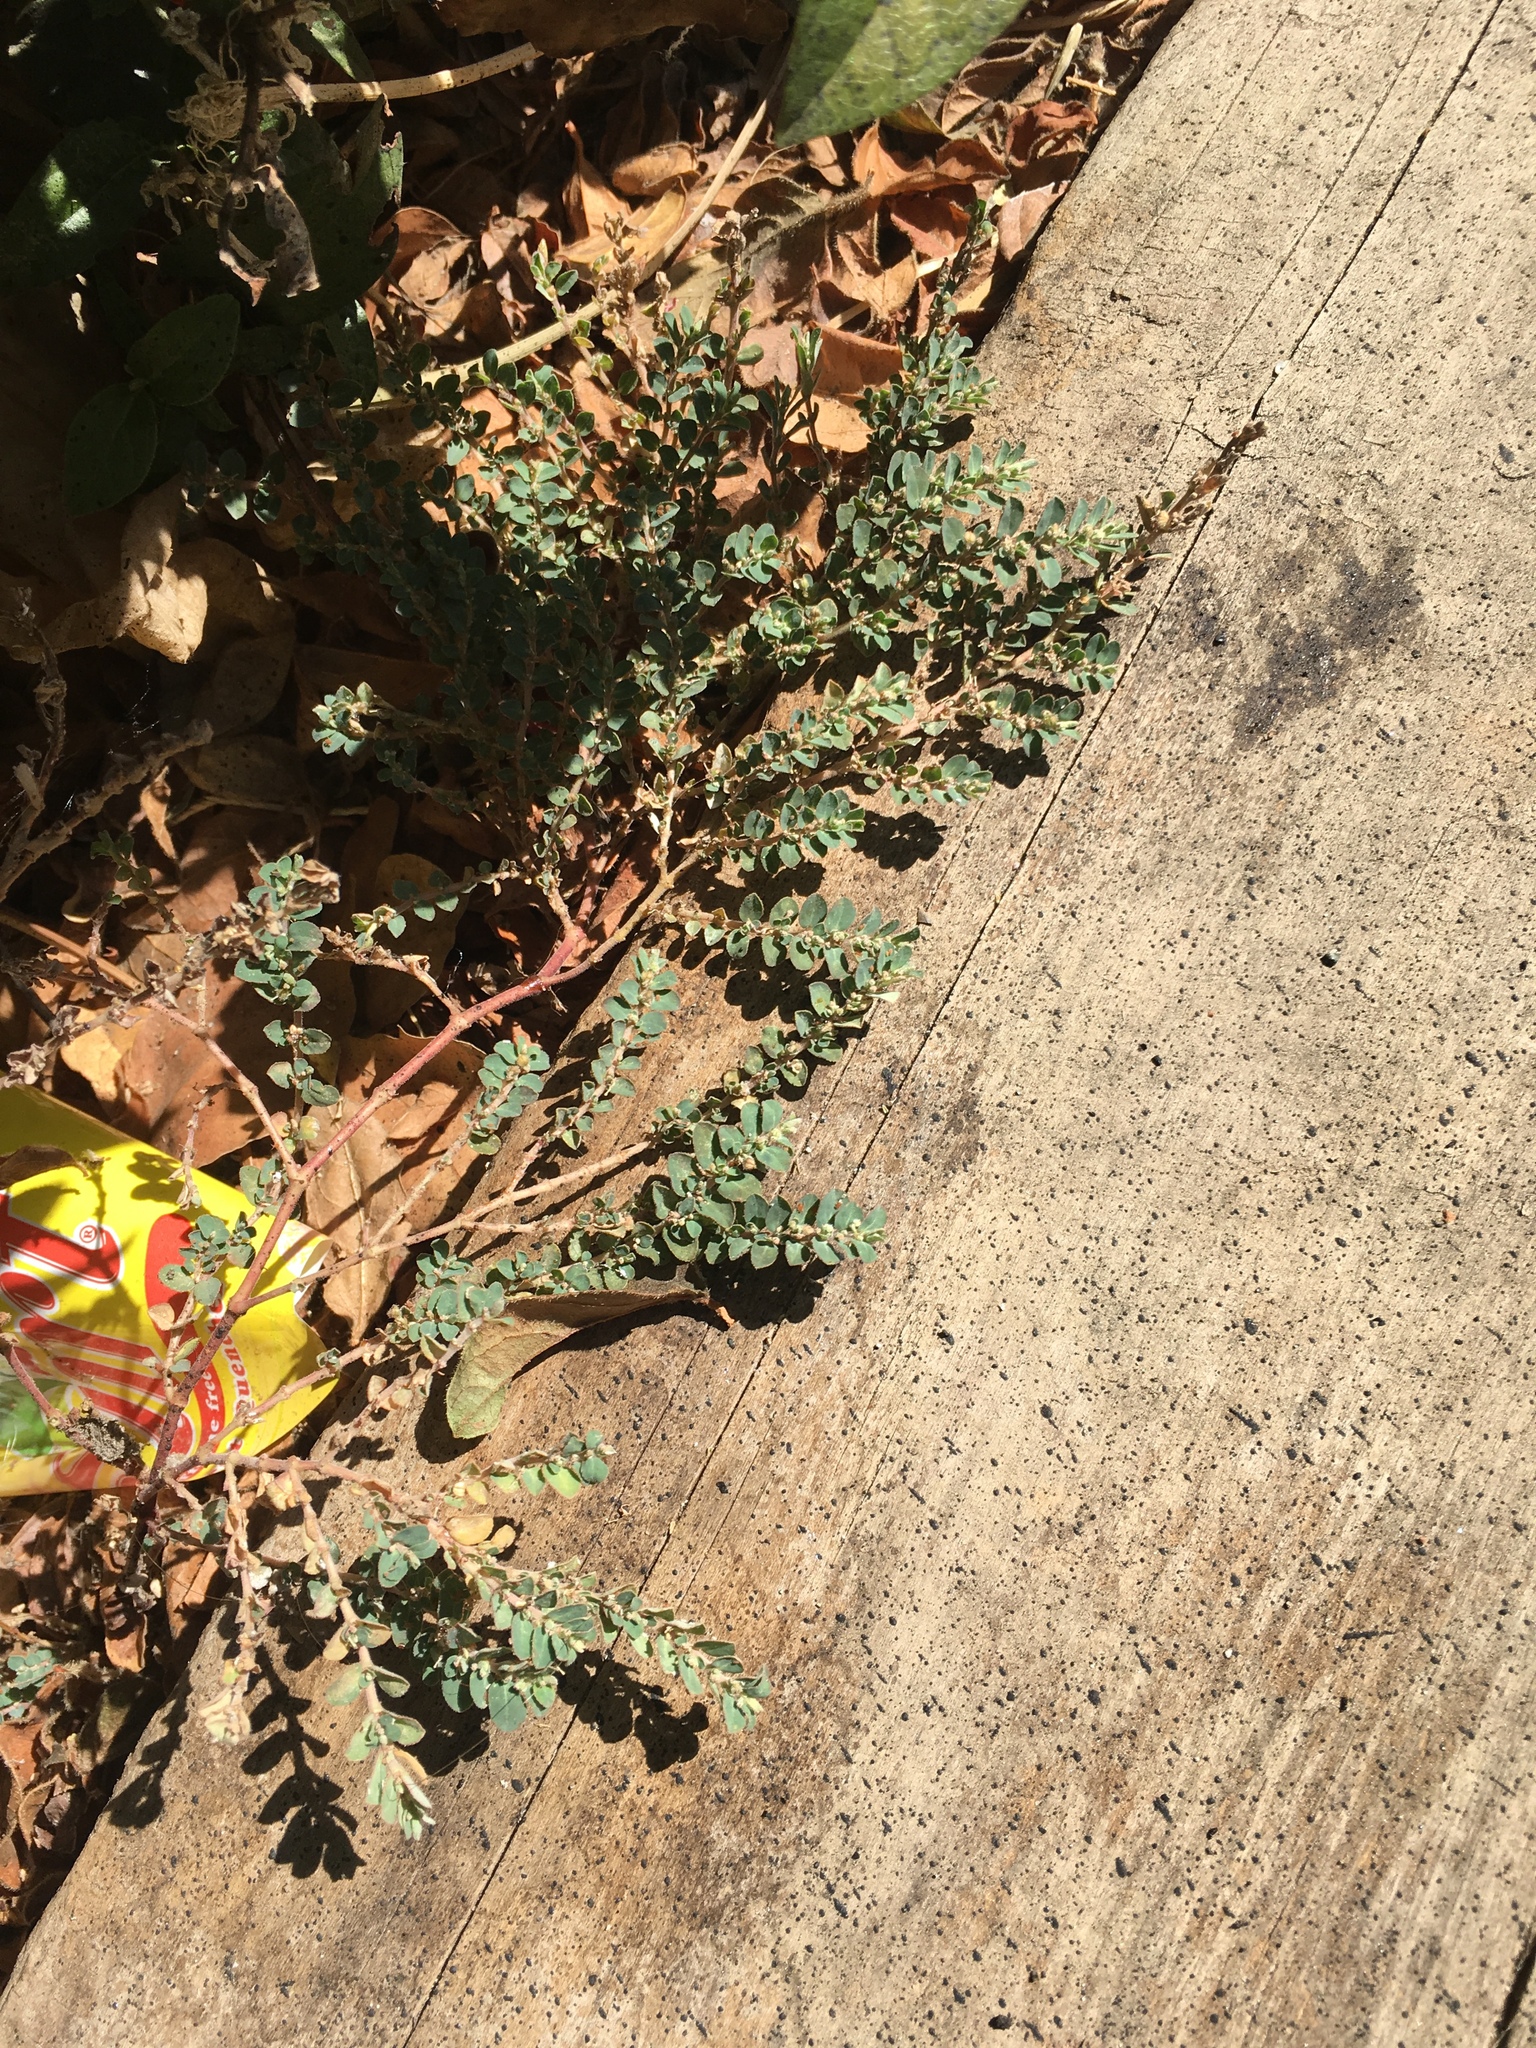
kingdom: Plantae
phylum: Tracheophyta
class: Magnoliopsida
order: Malpighiales
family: Euphorbiaceae
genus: Euphorbia
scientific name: Euphorbia prostrata
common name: Prostrate sandmat
